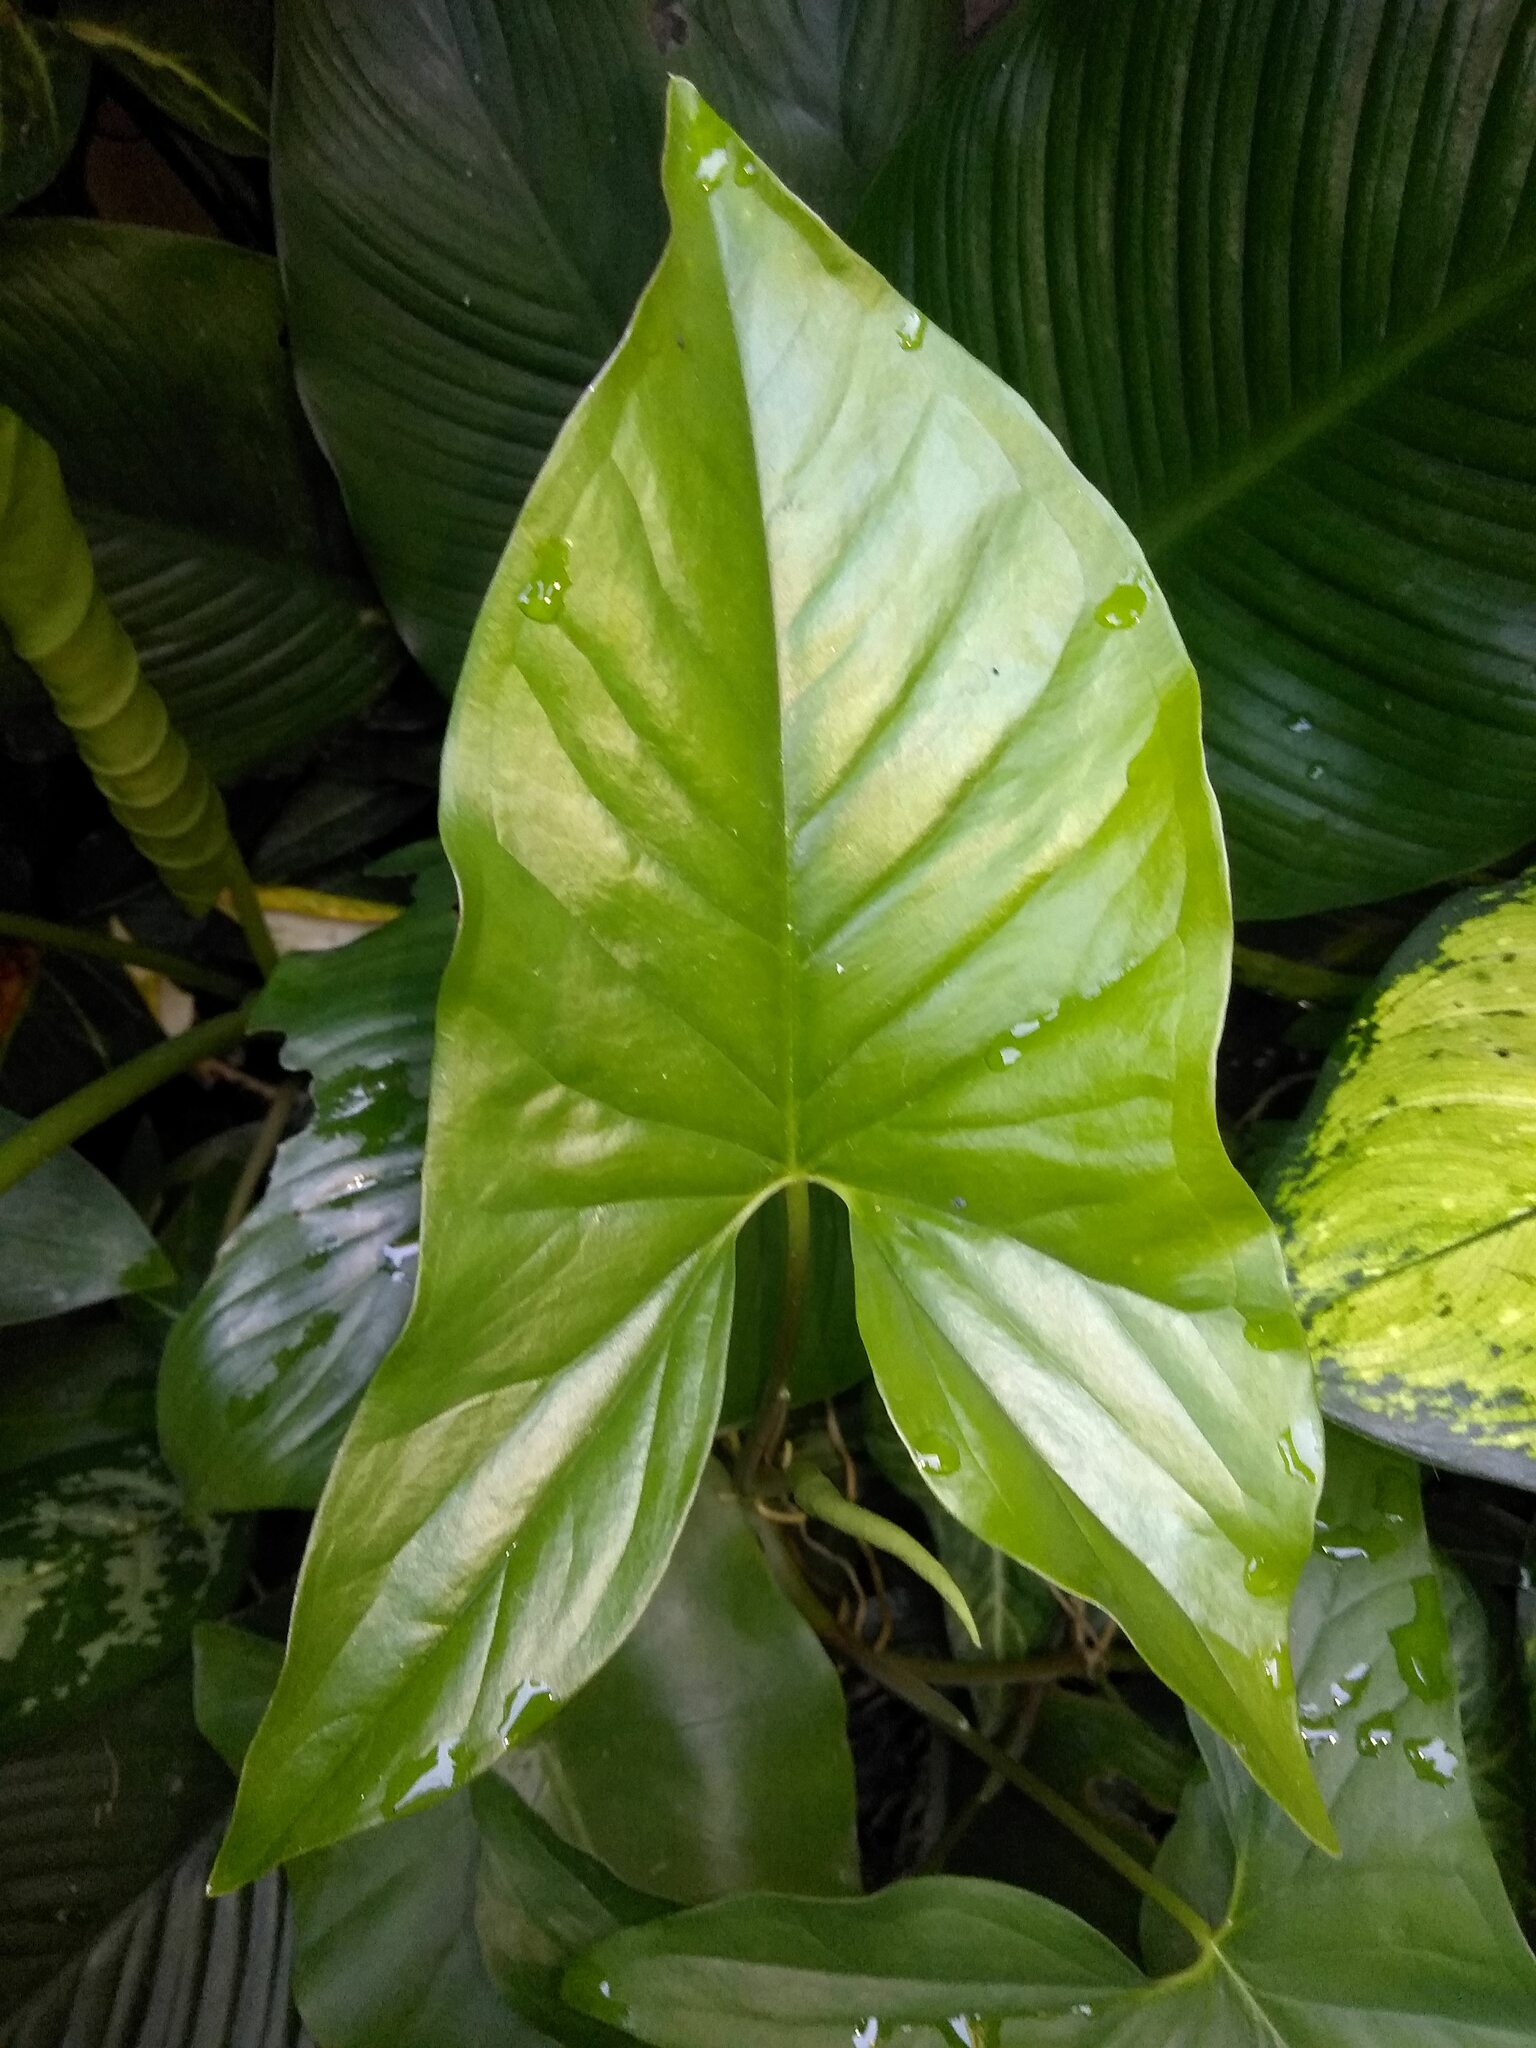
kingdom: Plantae
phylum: Tracheophyta
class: Liliopsida
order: Alismatales
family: Araceae
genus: Syngonium
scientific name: Syngonium podophyllum
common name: American evergreen
